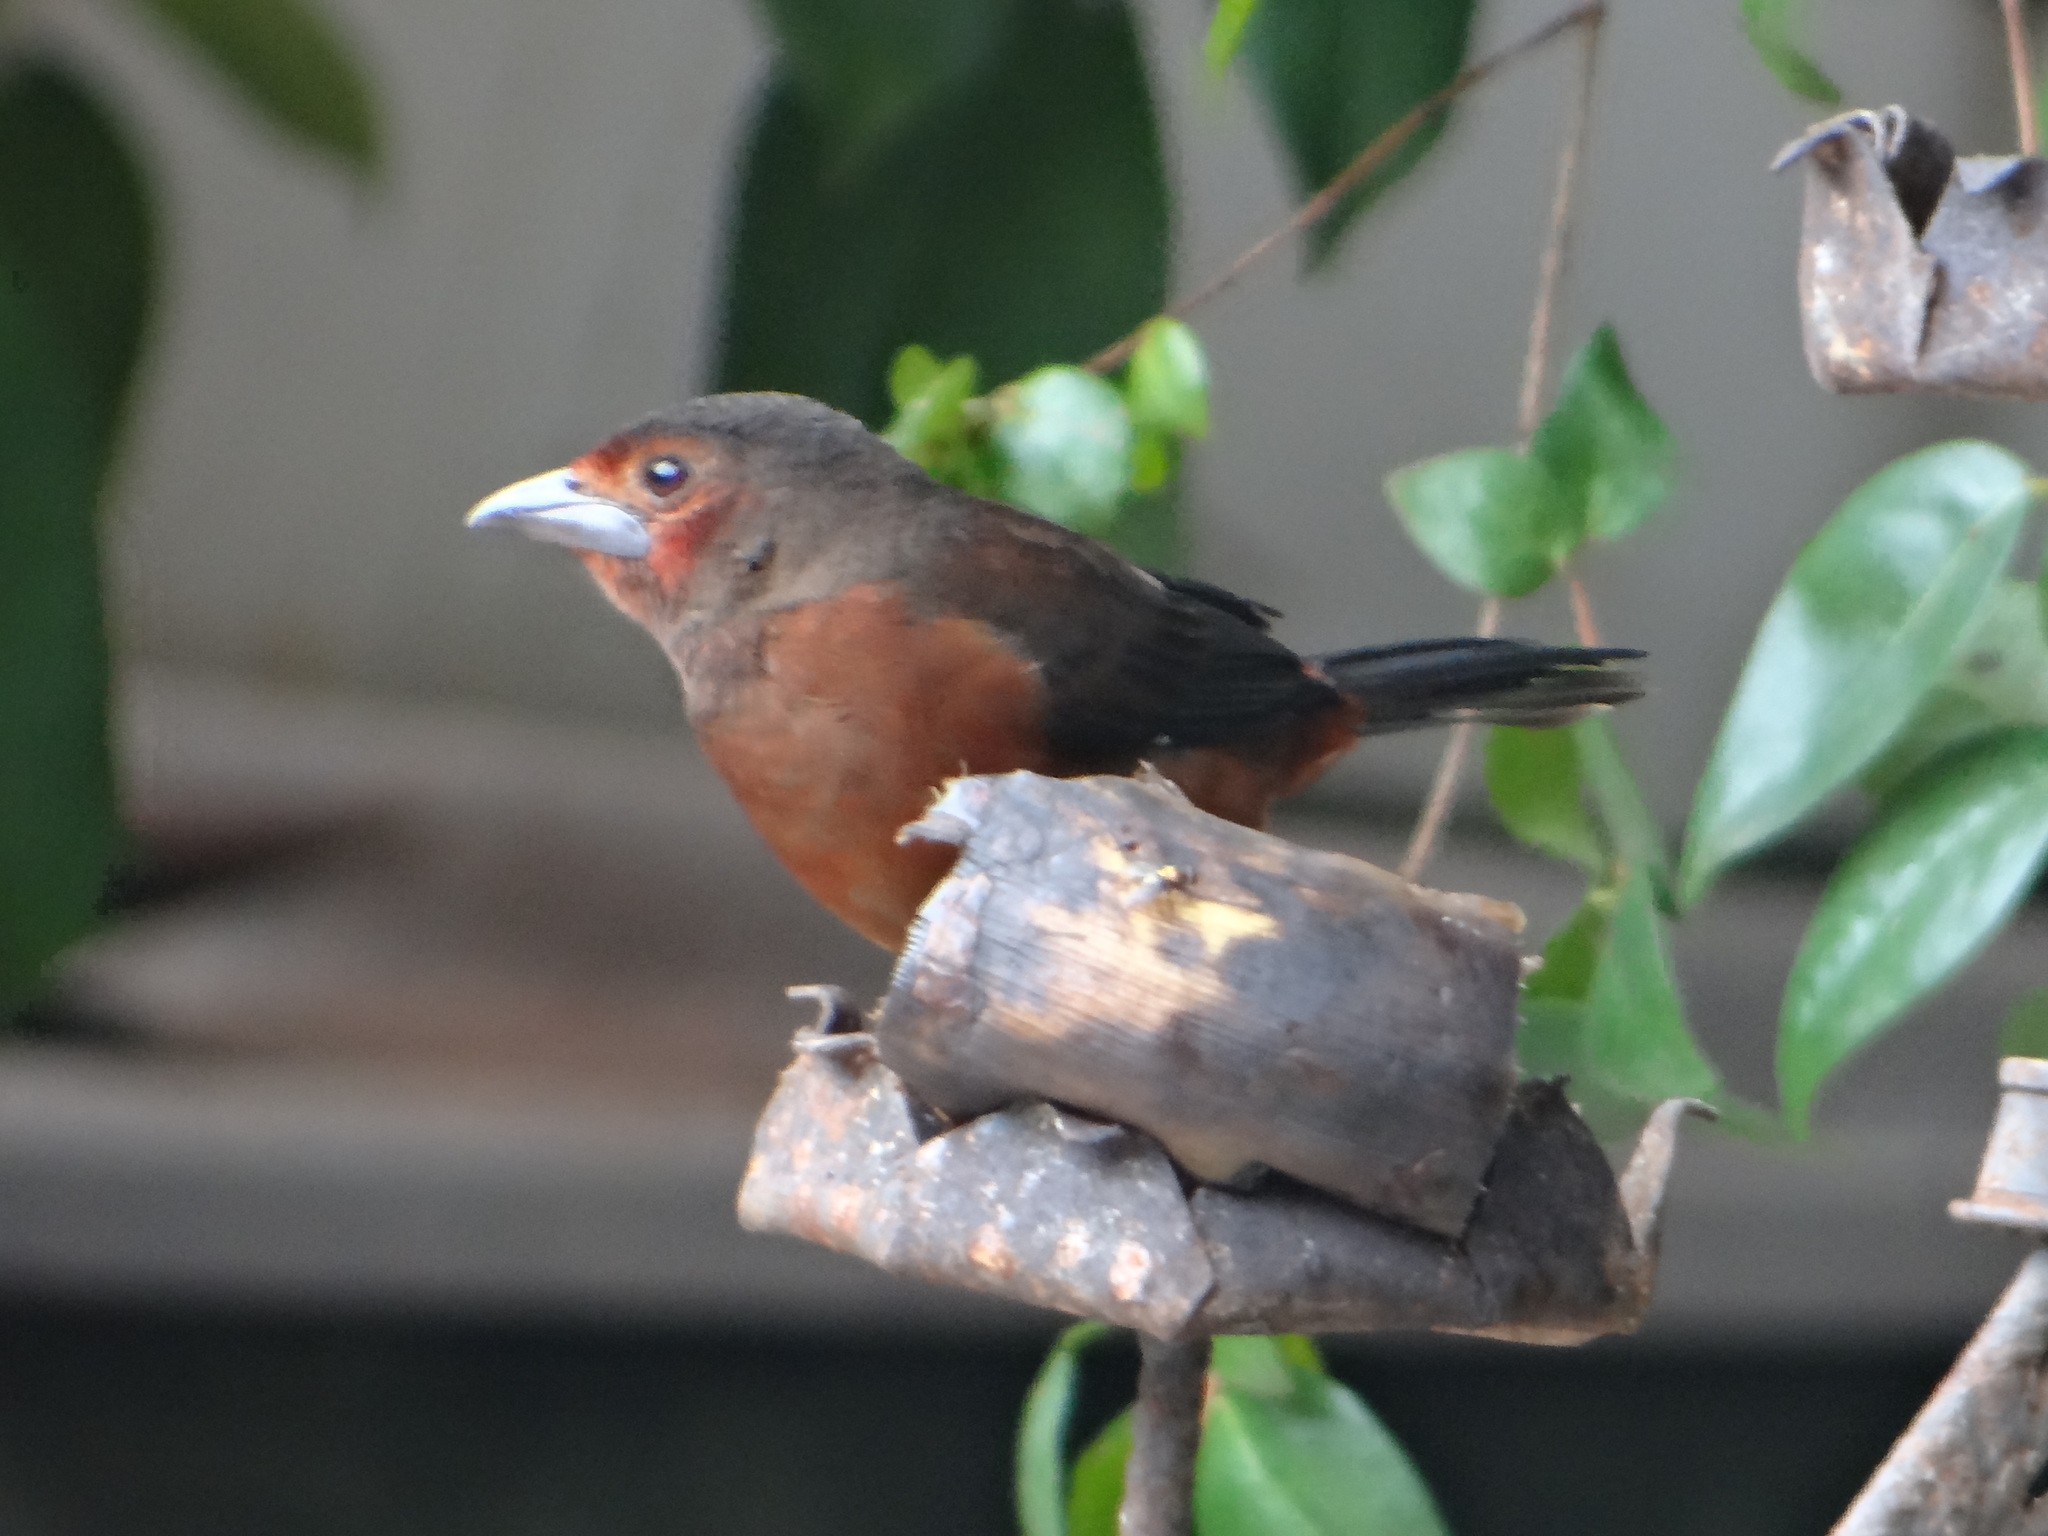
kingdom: Animalia
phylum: Chordata
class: Aves
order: Passeriformes
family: Thraupidae
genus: Ramphocelus
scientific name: Ramphocelus carbo
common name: Silver-beaked tanager
